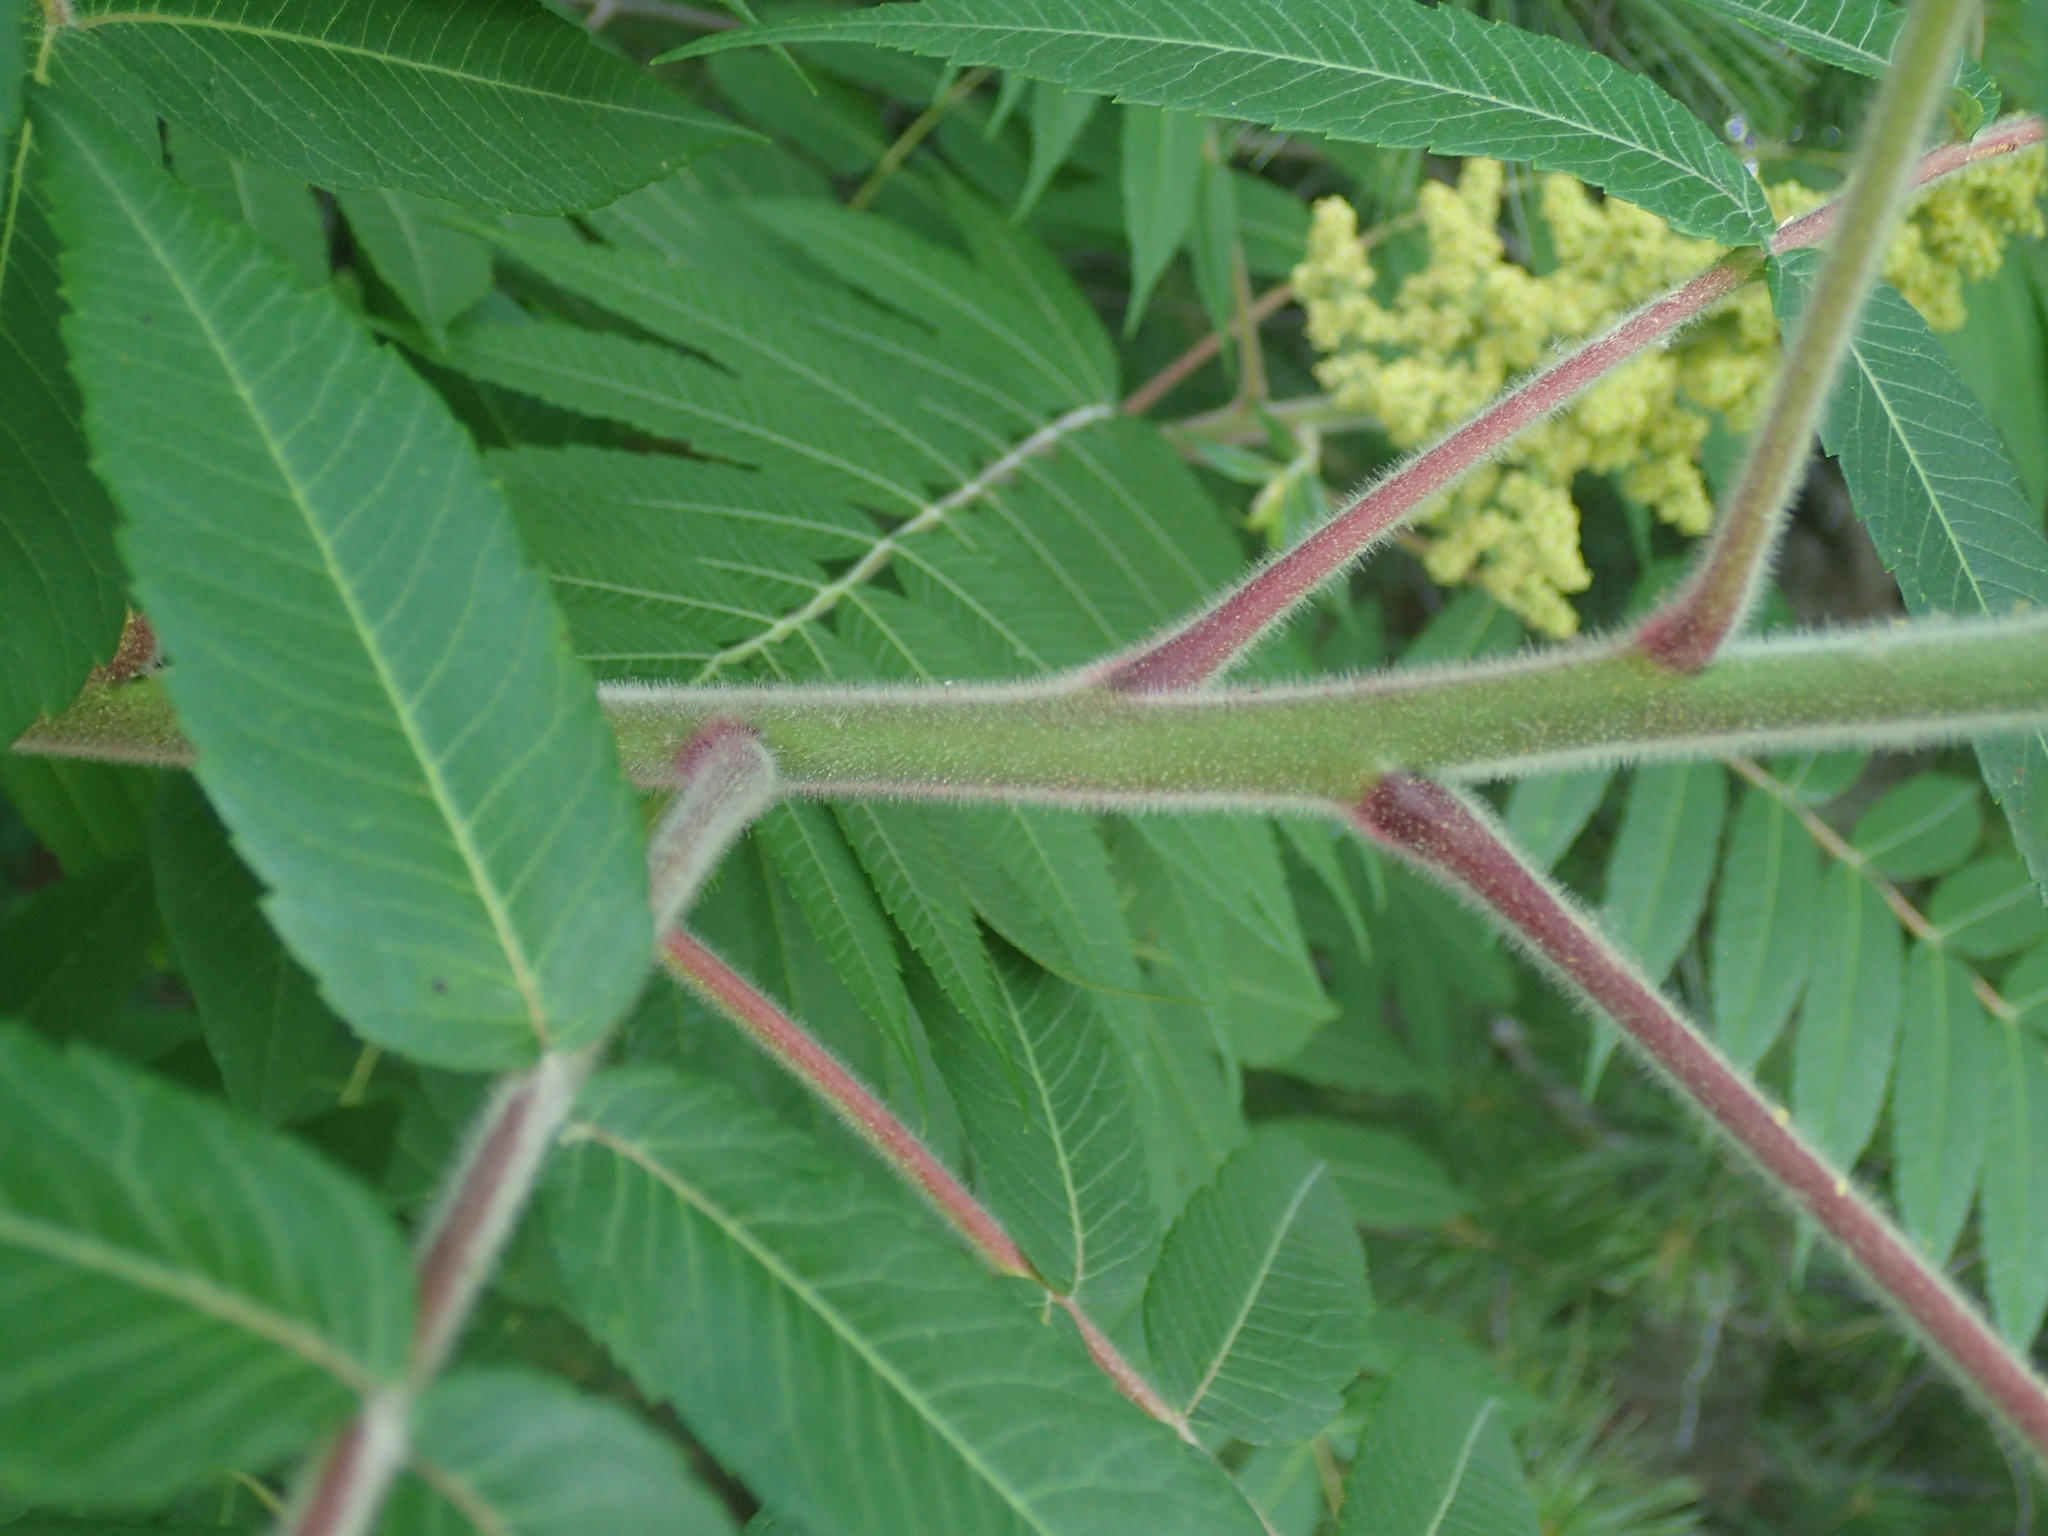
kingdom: Plantae
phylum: Tracheophyta
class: Magnoliopsida
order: Sapindales
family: Anacardiaceae
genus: Rhus
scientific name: Rhus typhina
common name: Staghorn sumac
